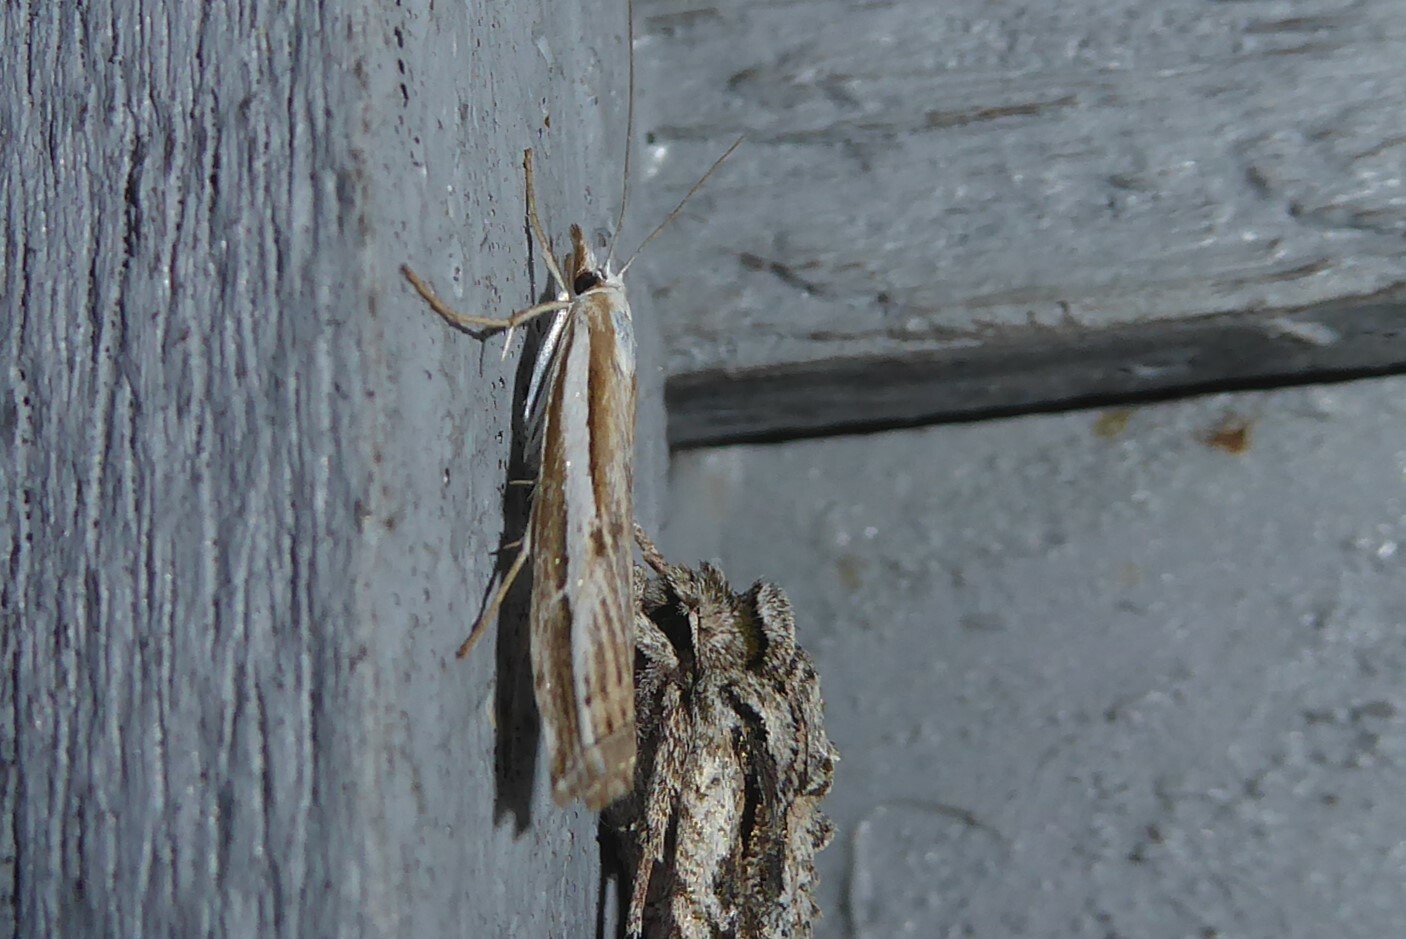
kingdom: Animalia
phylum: Arthropoda
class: Insecta
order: Lepidoptera
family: Crambidae
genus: Orocrambus
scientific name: Orocrambus vittellus
